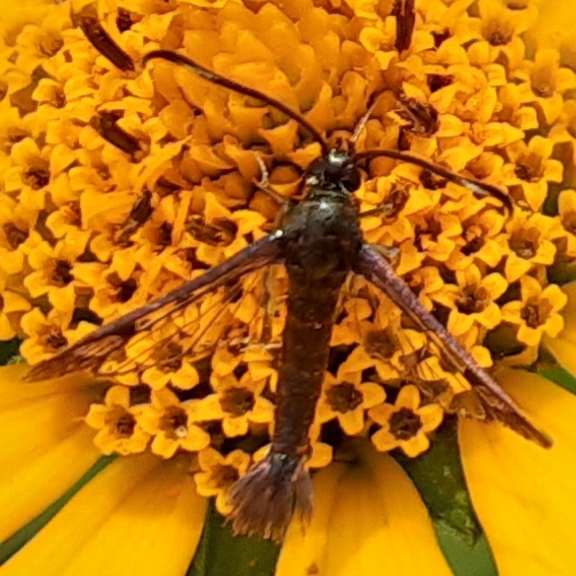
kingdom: Animalia
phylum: Arthropoda
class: Insecta
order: Lepidoptera
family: Sesiidae
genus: Carmenta
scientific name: Carmenta ithacae
